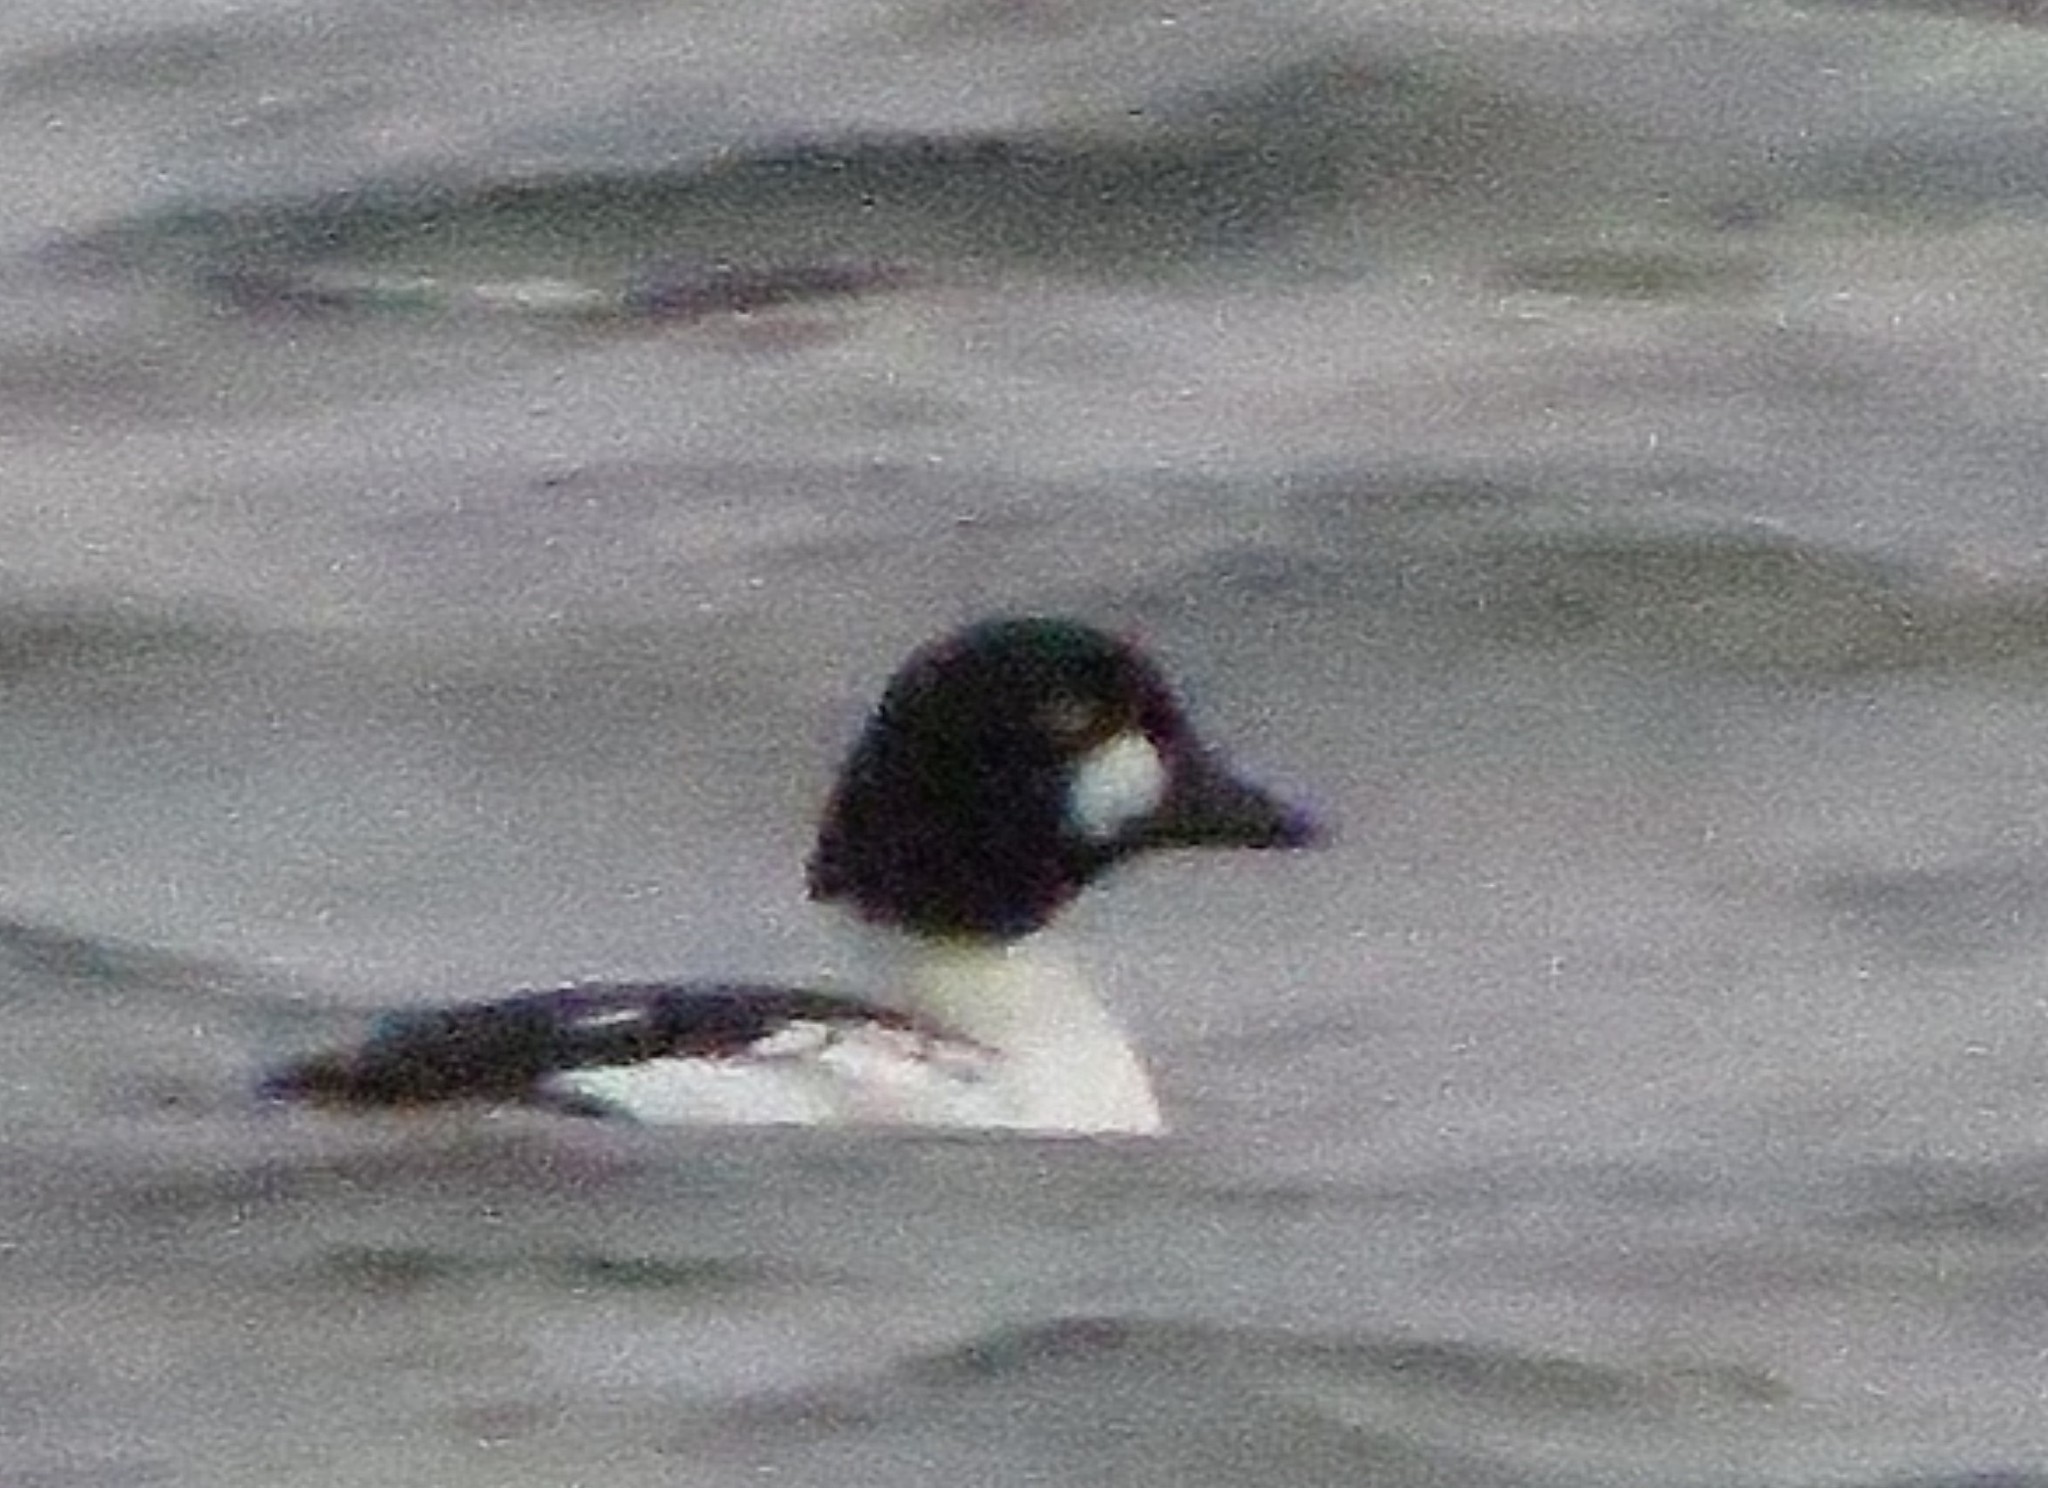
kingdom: Animalia
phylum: Chordata
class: Aves
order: Anseriformes
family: Anatidae
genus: Bucephala
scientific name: Bucephala clangula
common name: Common goldeneye
